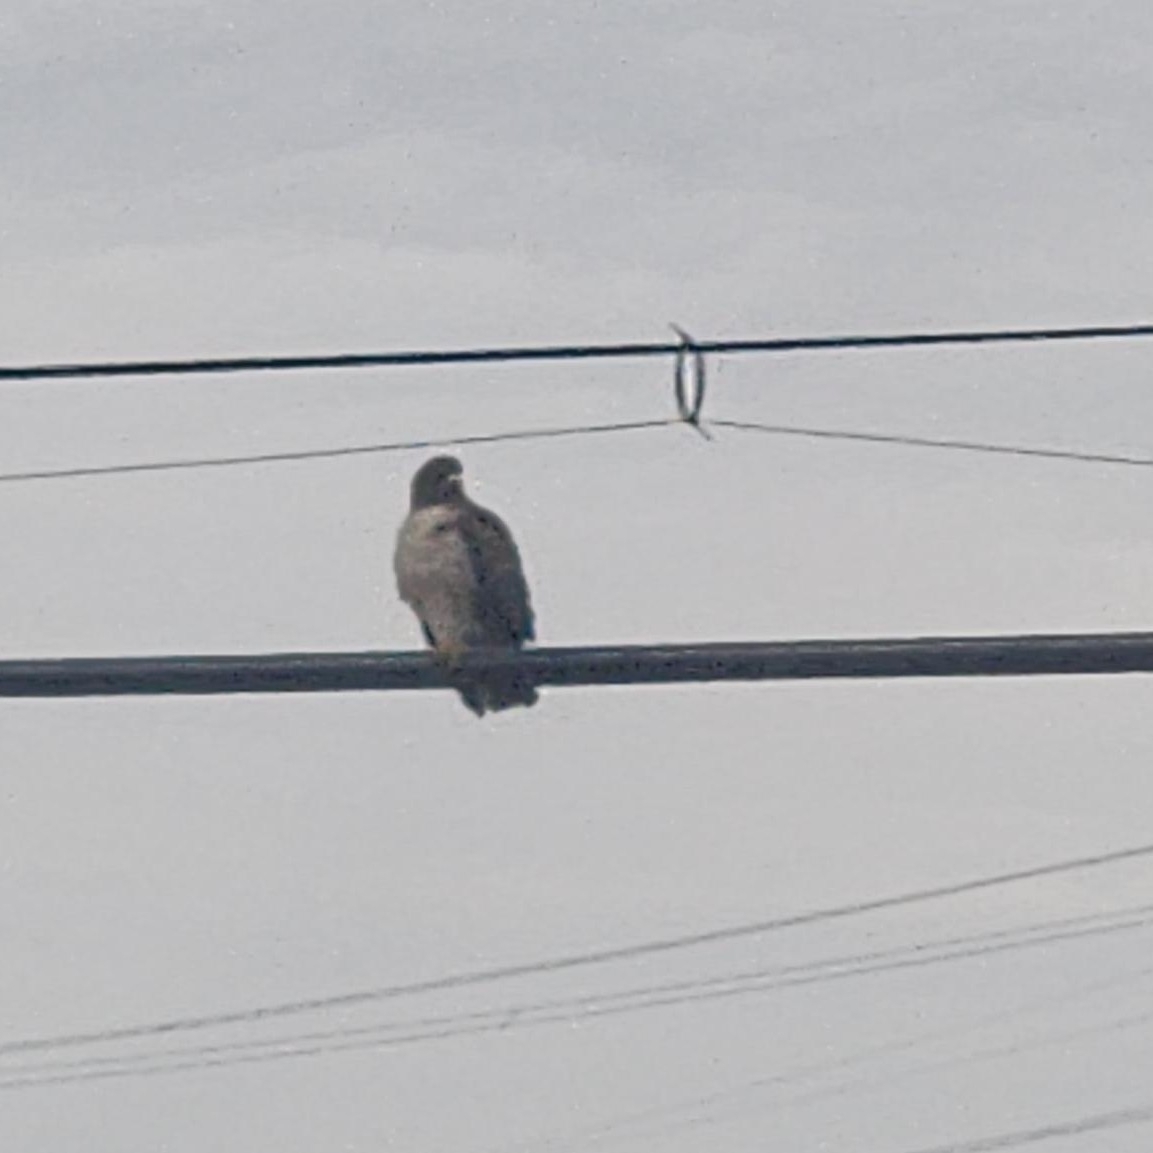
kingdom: Animalia
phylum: Chordata
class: Aves
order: Accipitriformes
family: Accipitridae
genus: Buteo
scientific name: Buteo jamaicensis
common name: Red-tailed hawk
